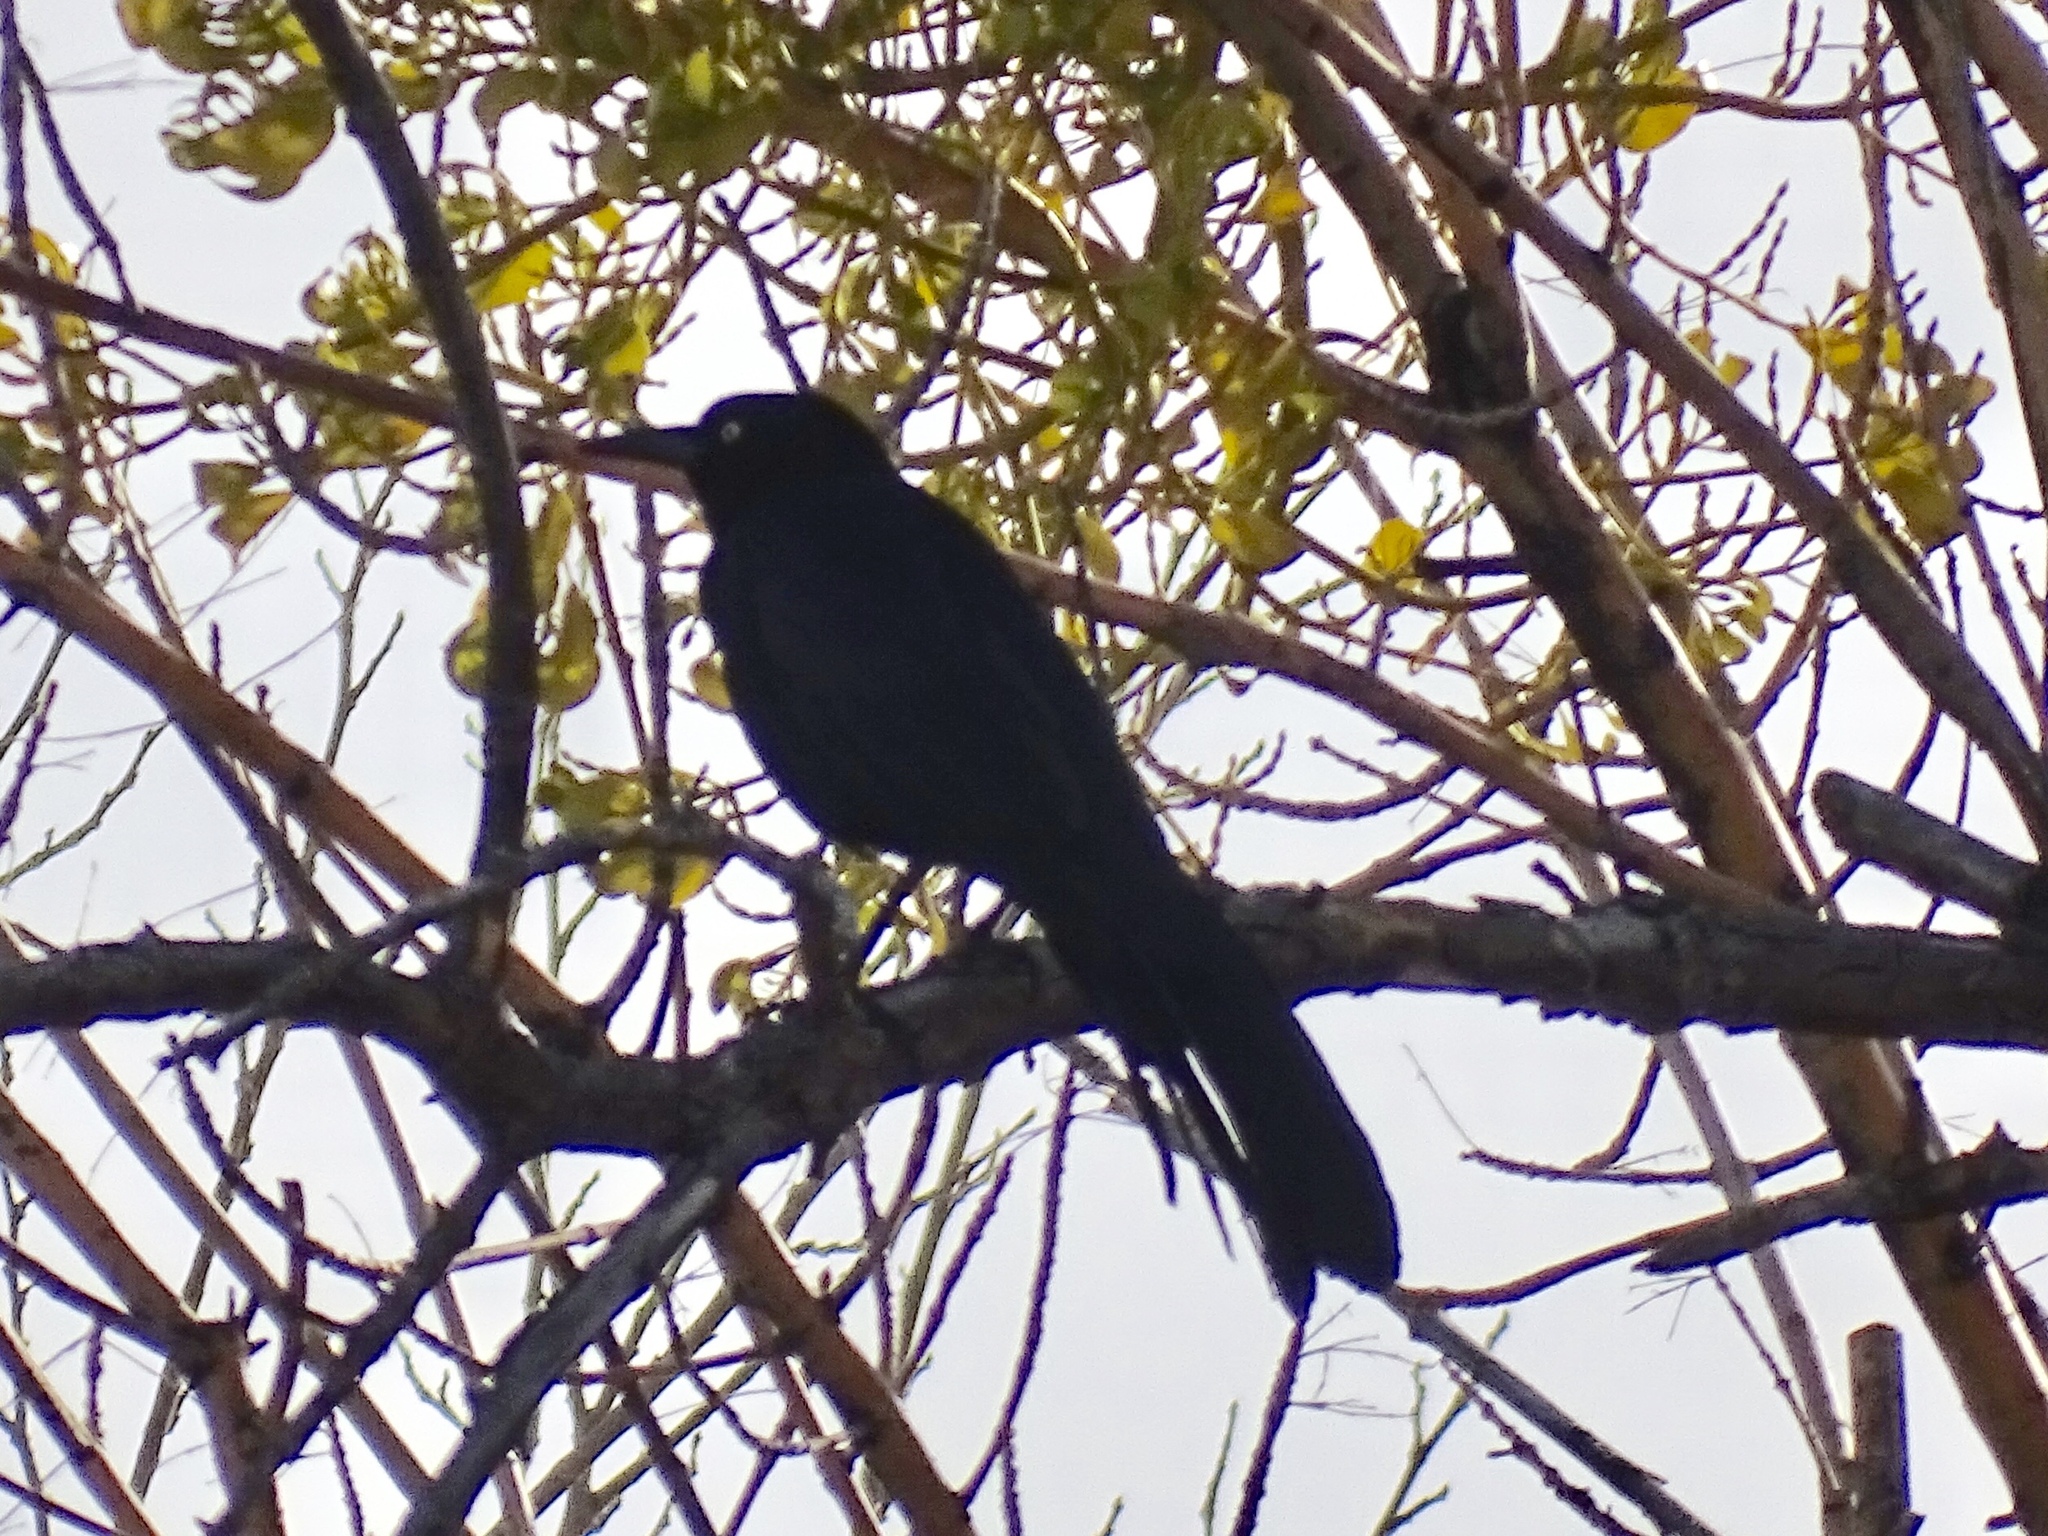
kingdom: Animalia
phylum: Chordata
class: Aves
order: Passeriformes
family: Icteridae
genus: Quiscalus
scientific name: Quiscalus mexicanus
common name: Great-tailed grackle
